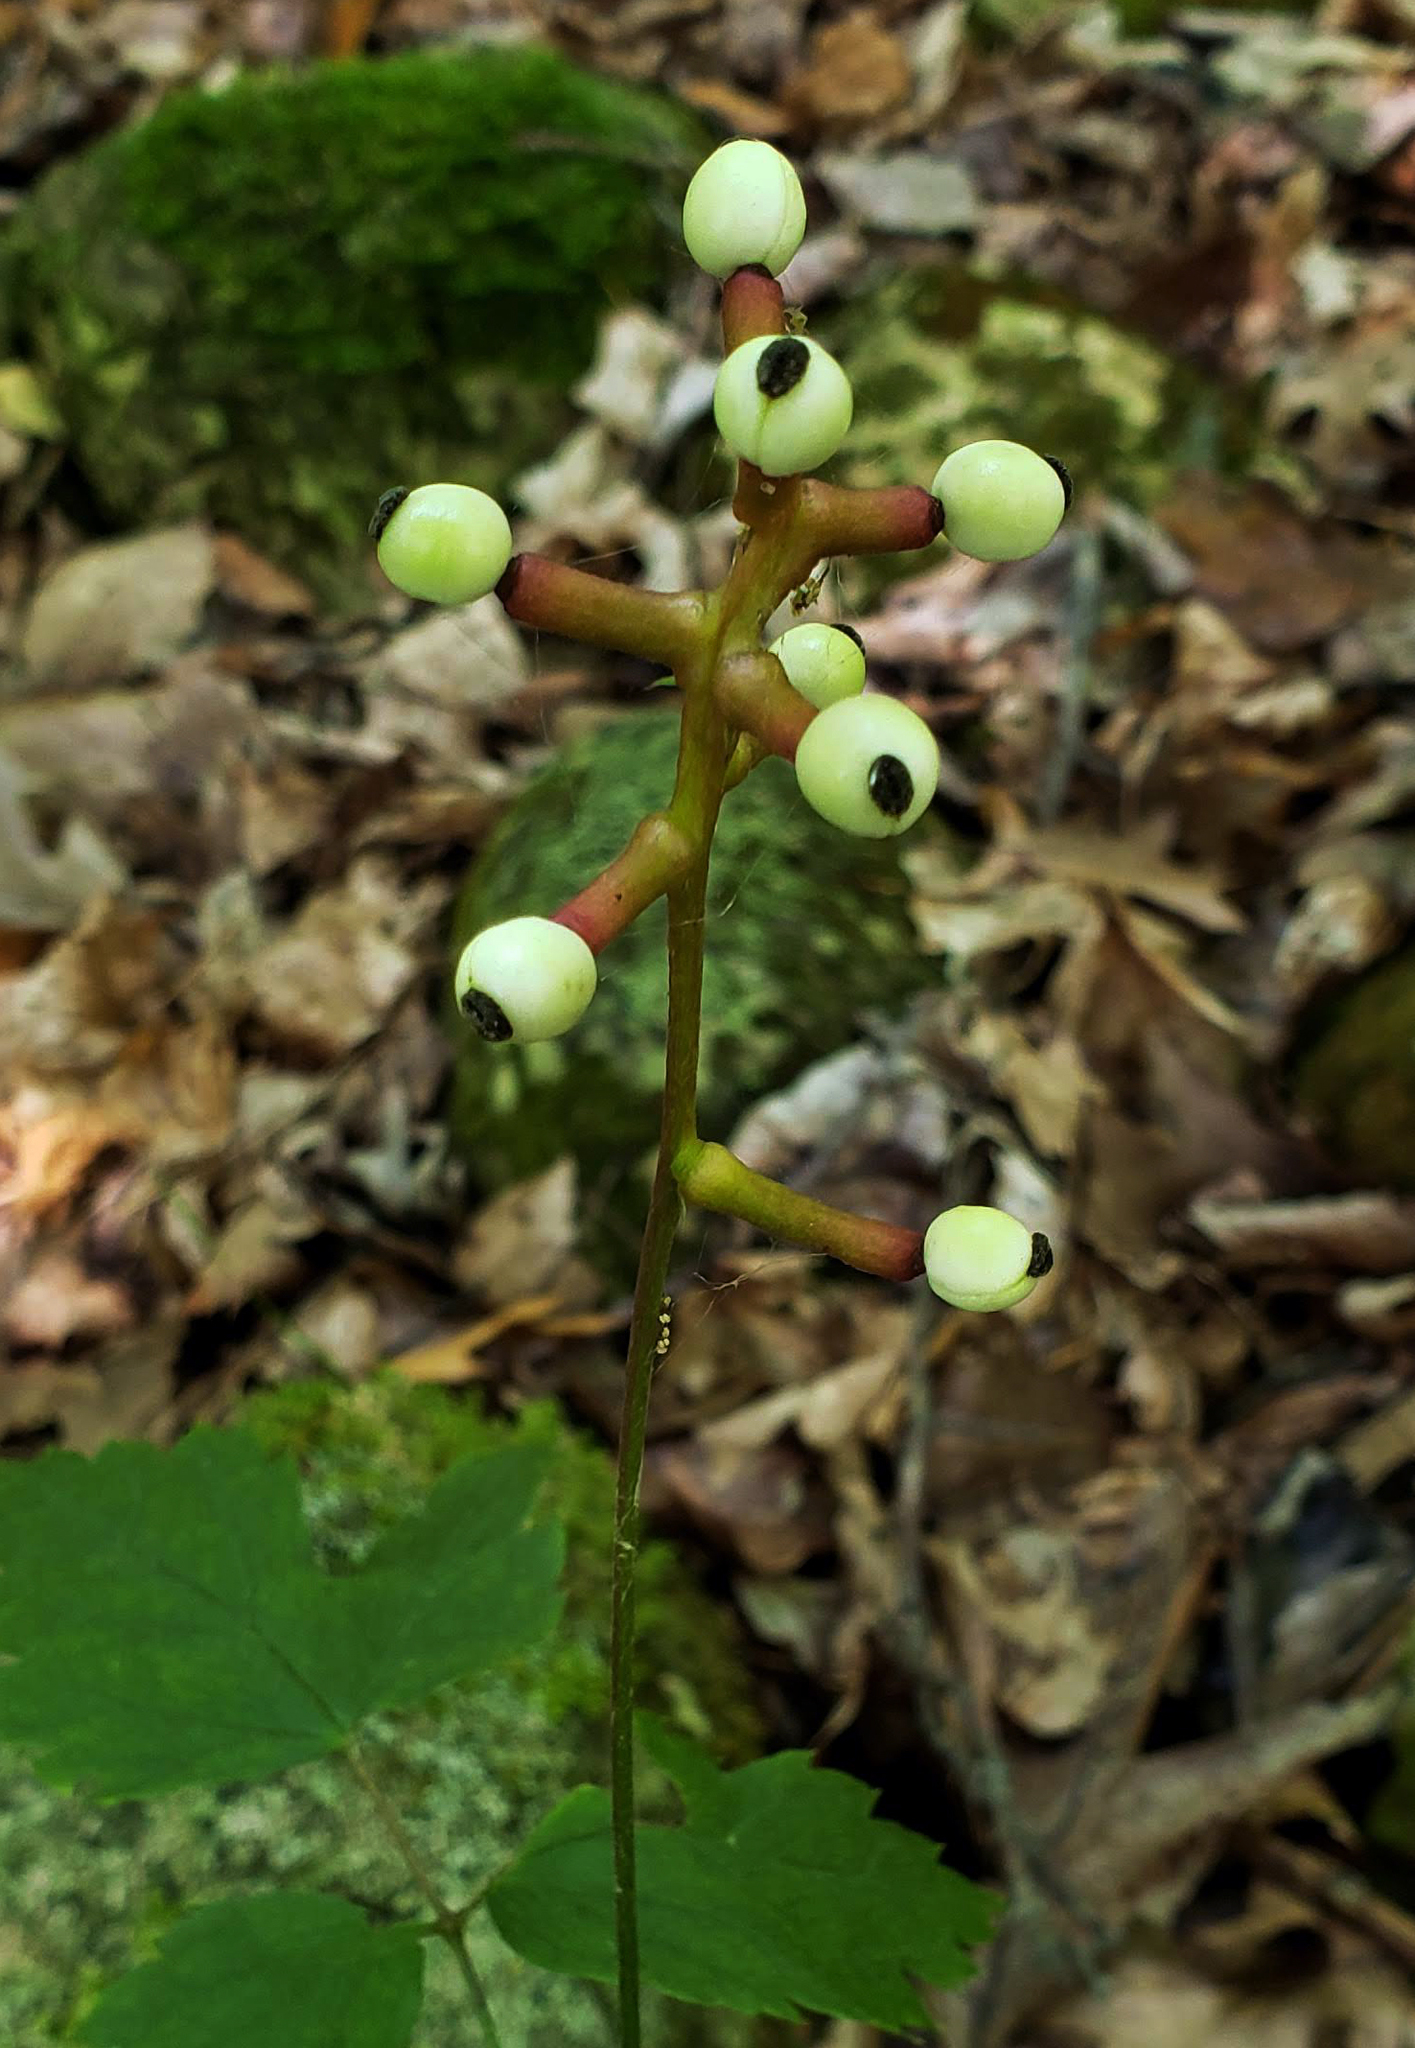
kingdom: Plantae
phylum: Tracheophyta
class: Magnoliopsida
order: Ranunculales
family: Ranunculaceae
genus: Actaea
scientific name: Actaea pachypoda
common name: Doll's-eyes
